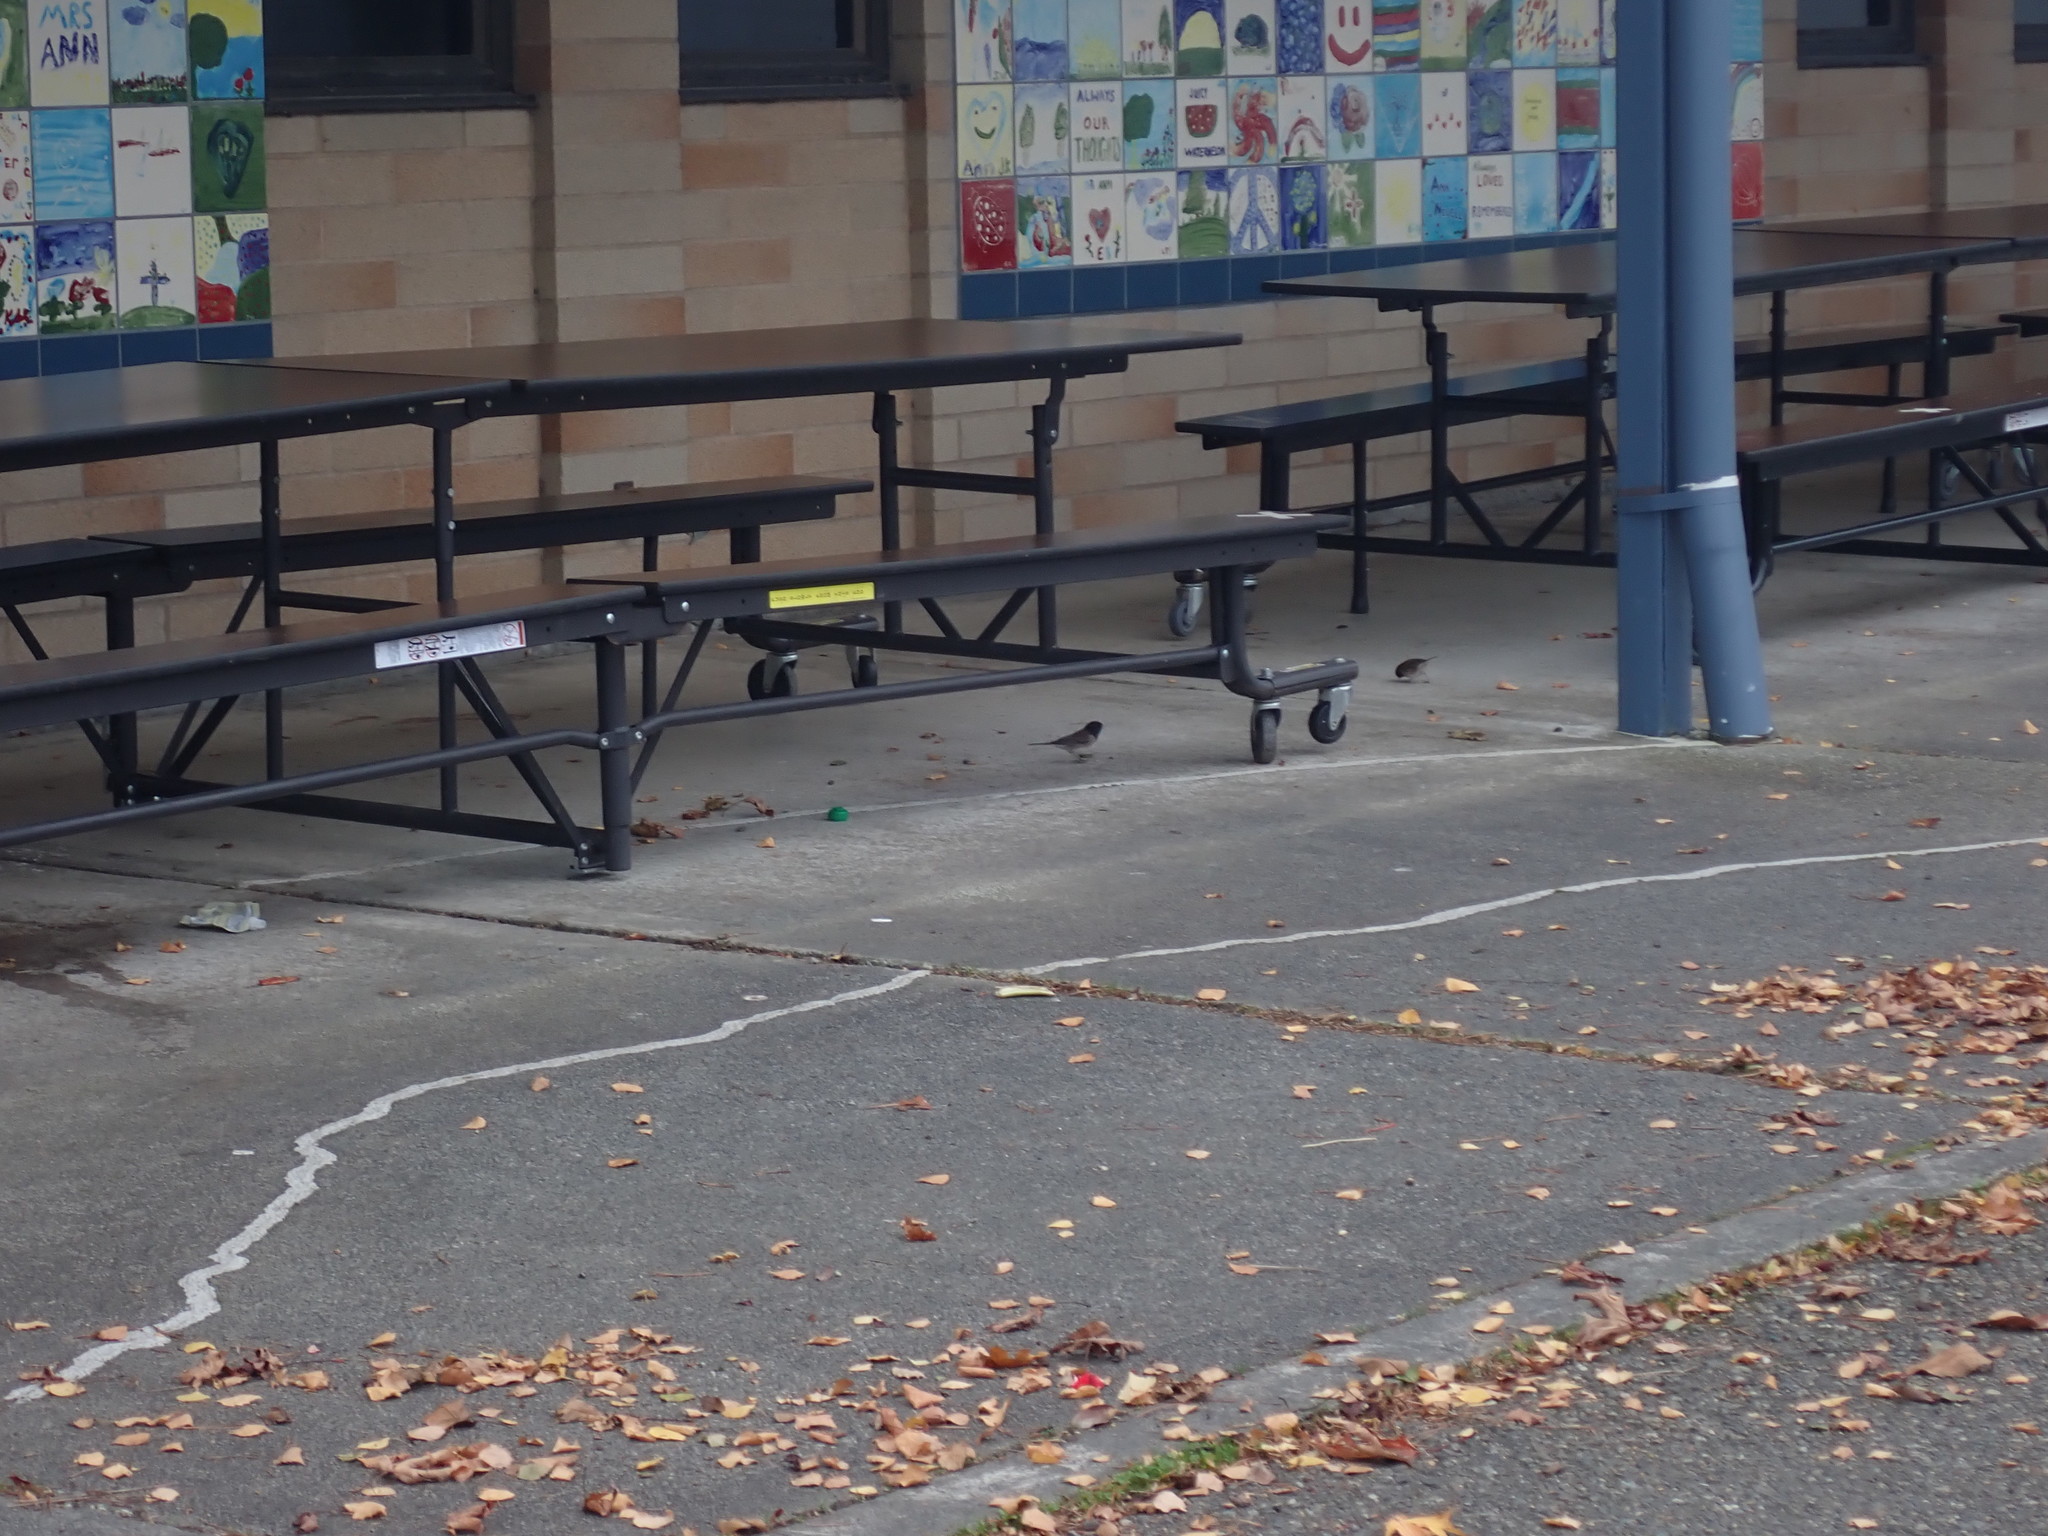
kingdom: Animalia
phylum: Chordata
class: Aves
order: Passeriformes
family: Passerellidae
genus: Junco
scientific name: Junco hyemalis
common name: Dark-eyed junco
